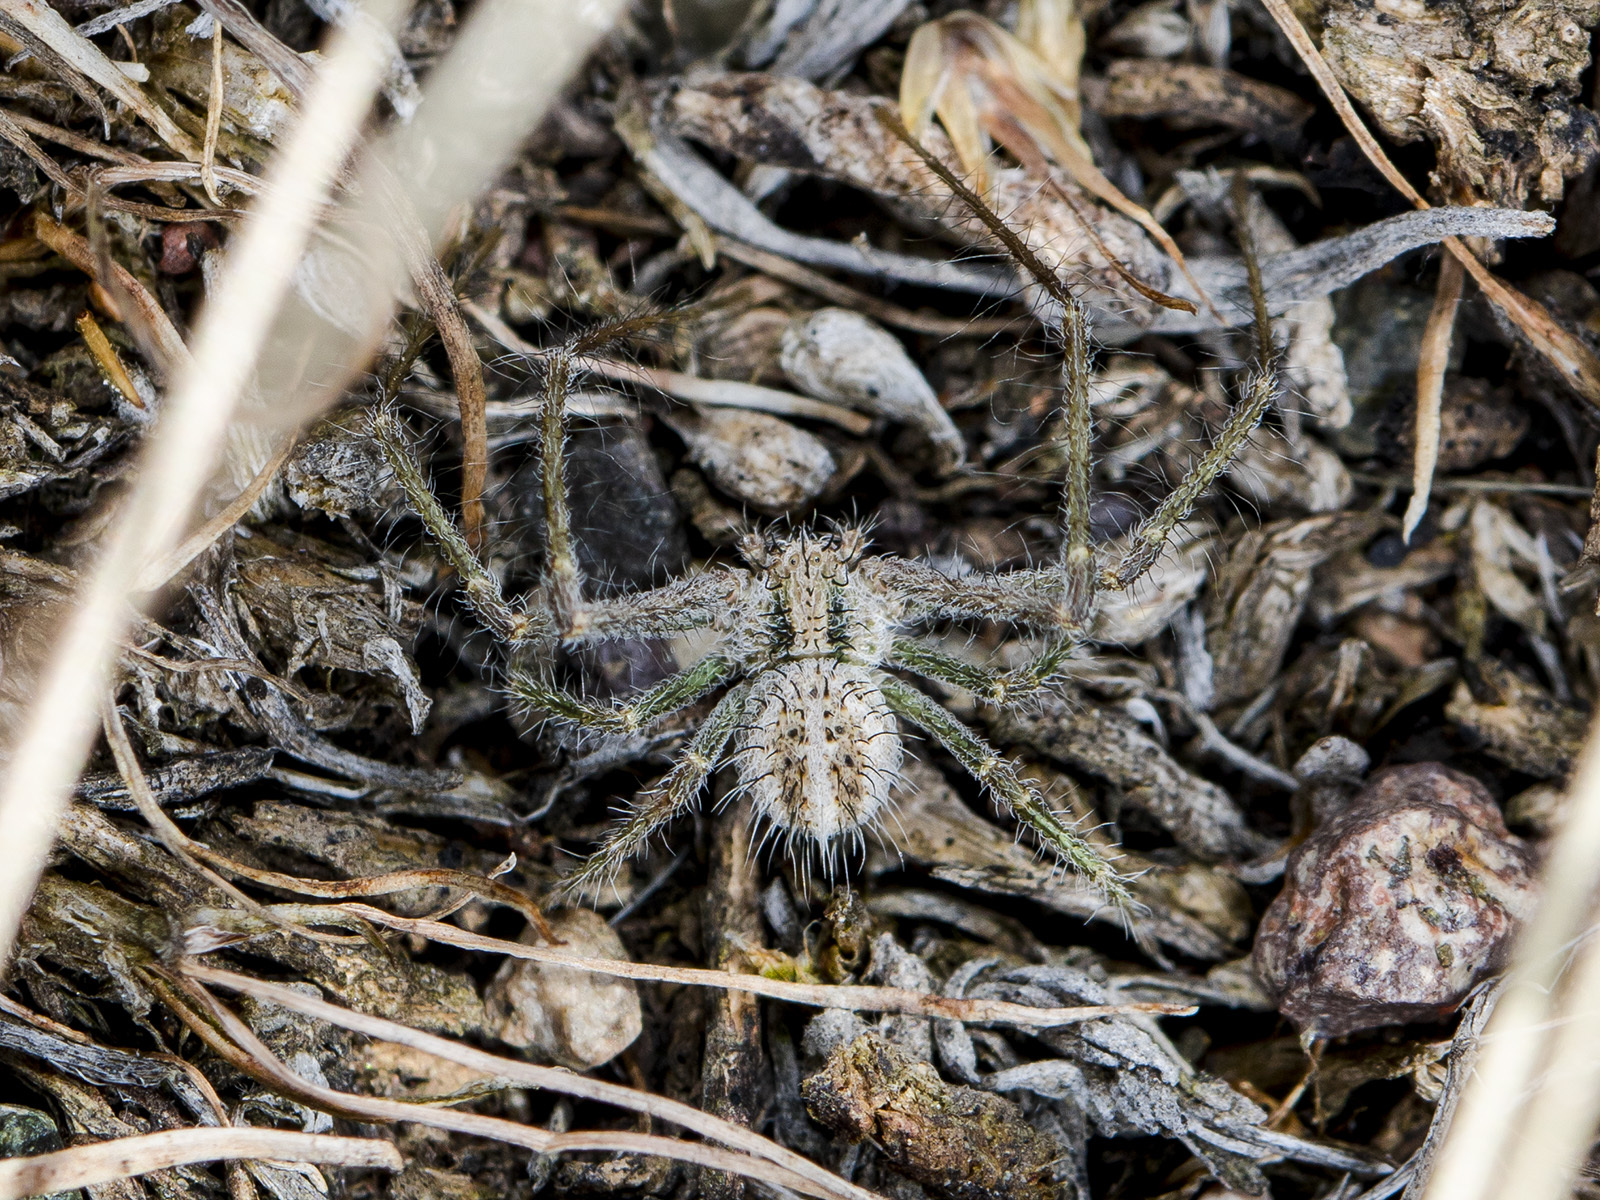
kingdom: Animalia
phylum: Arthropoda
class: Arachnida
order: Araneae
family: Thomisidae
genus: Heriaeus
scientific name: Heriaeus horridus
